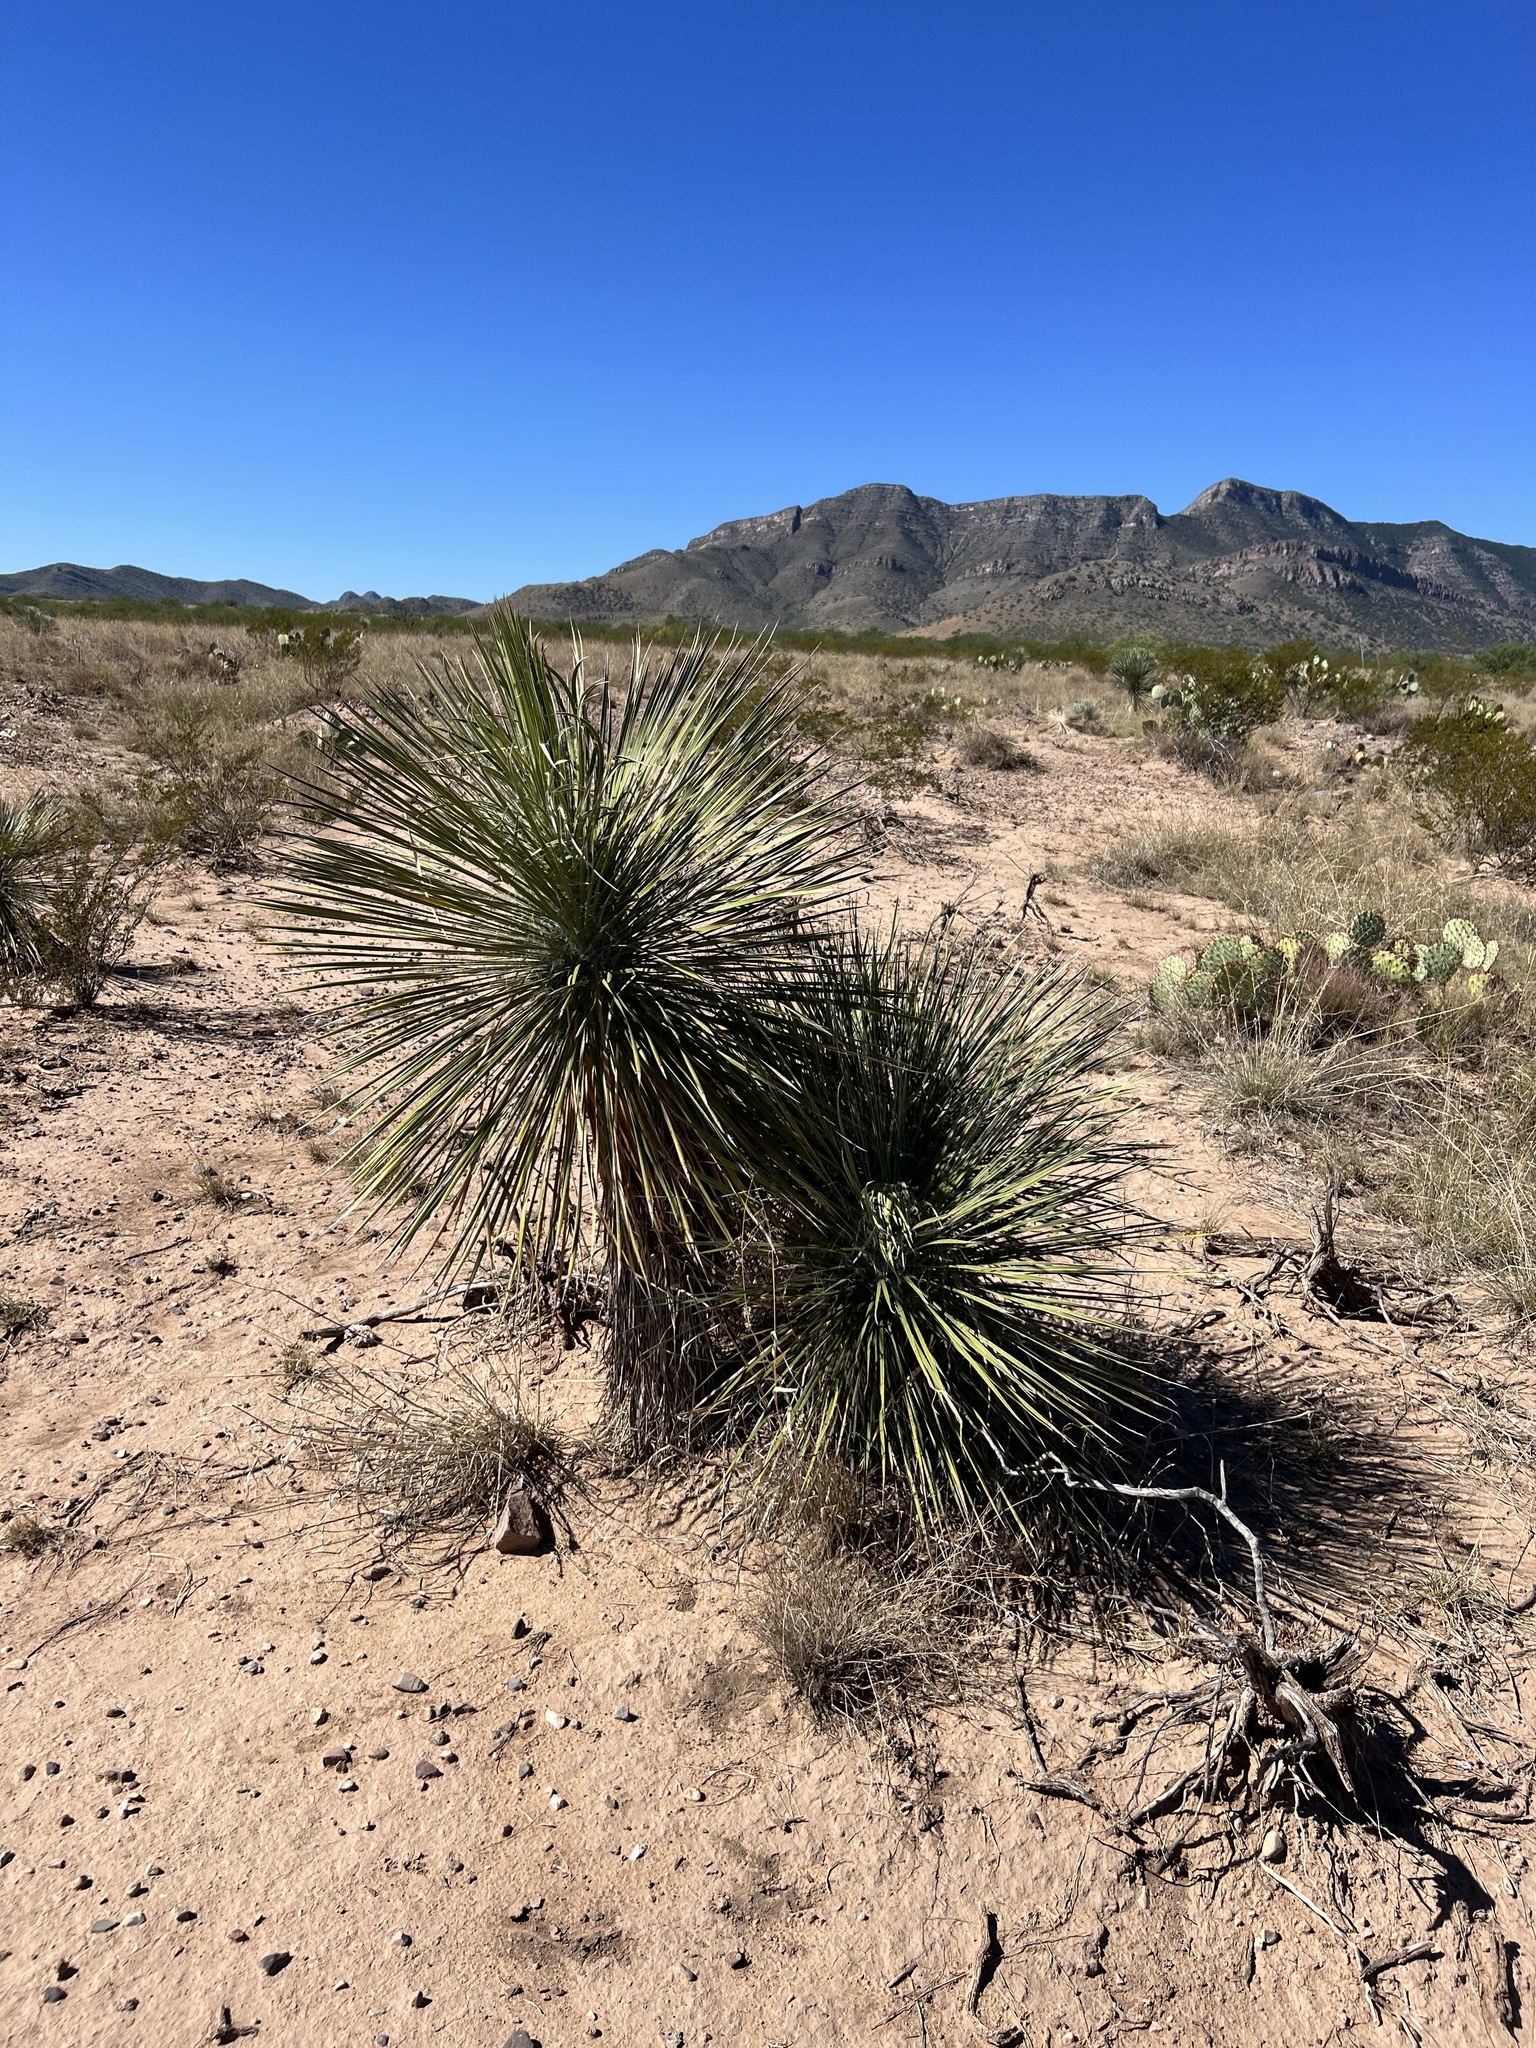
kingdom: Plantae
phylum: Tracheophyta
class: Liliopsida
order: Asparagales
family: Asparagaceae
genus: Yucca
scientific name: Yucca elata
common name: Palmella
